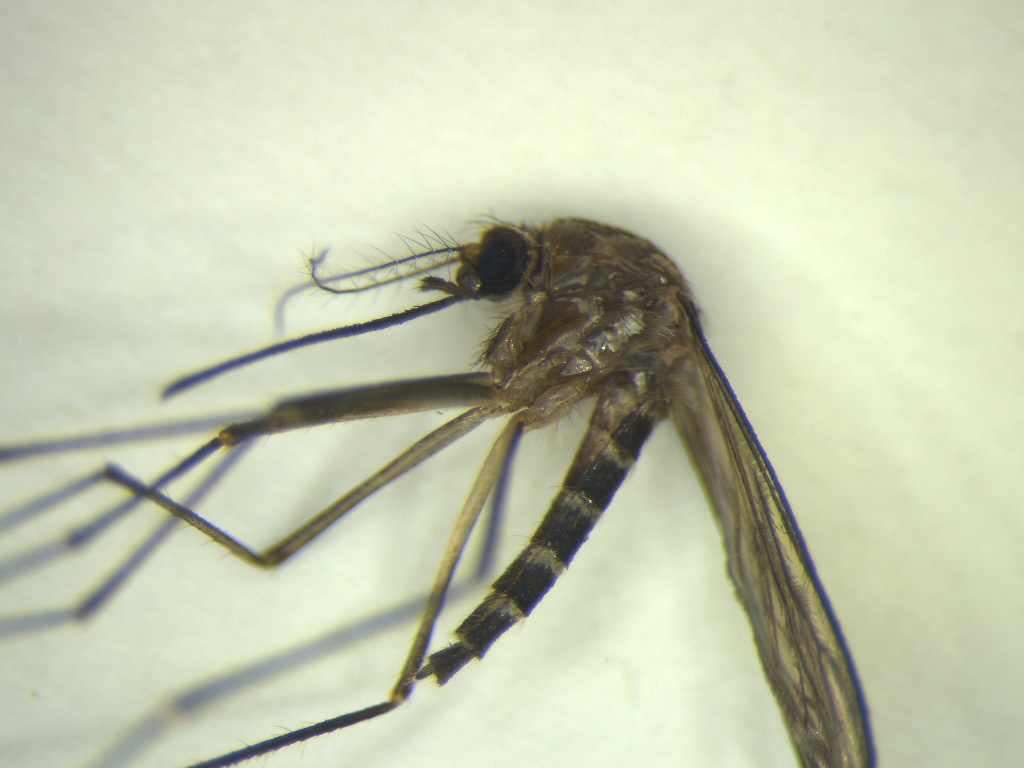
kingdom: Animalia
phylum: Arthropoda
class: Insecta
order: Diptera
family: Culicidae
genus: Aedes
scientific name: Aedes antipodeus
